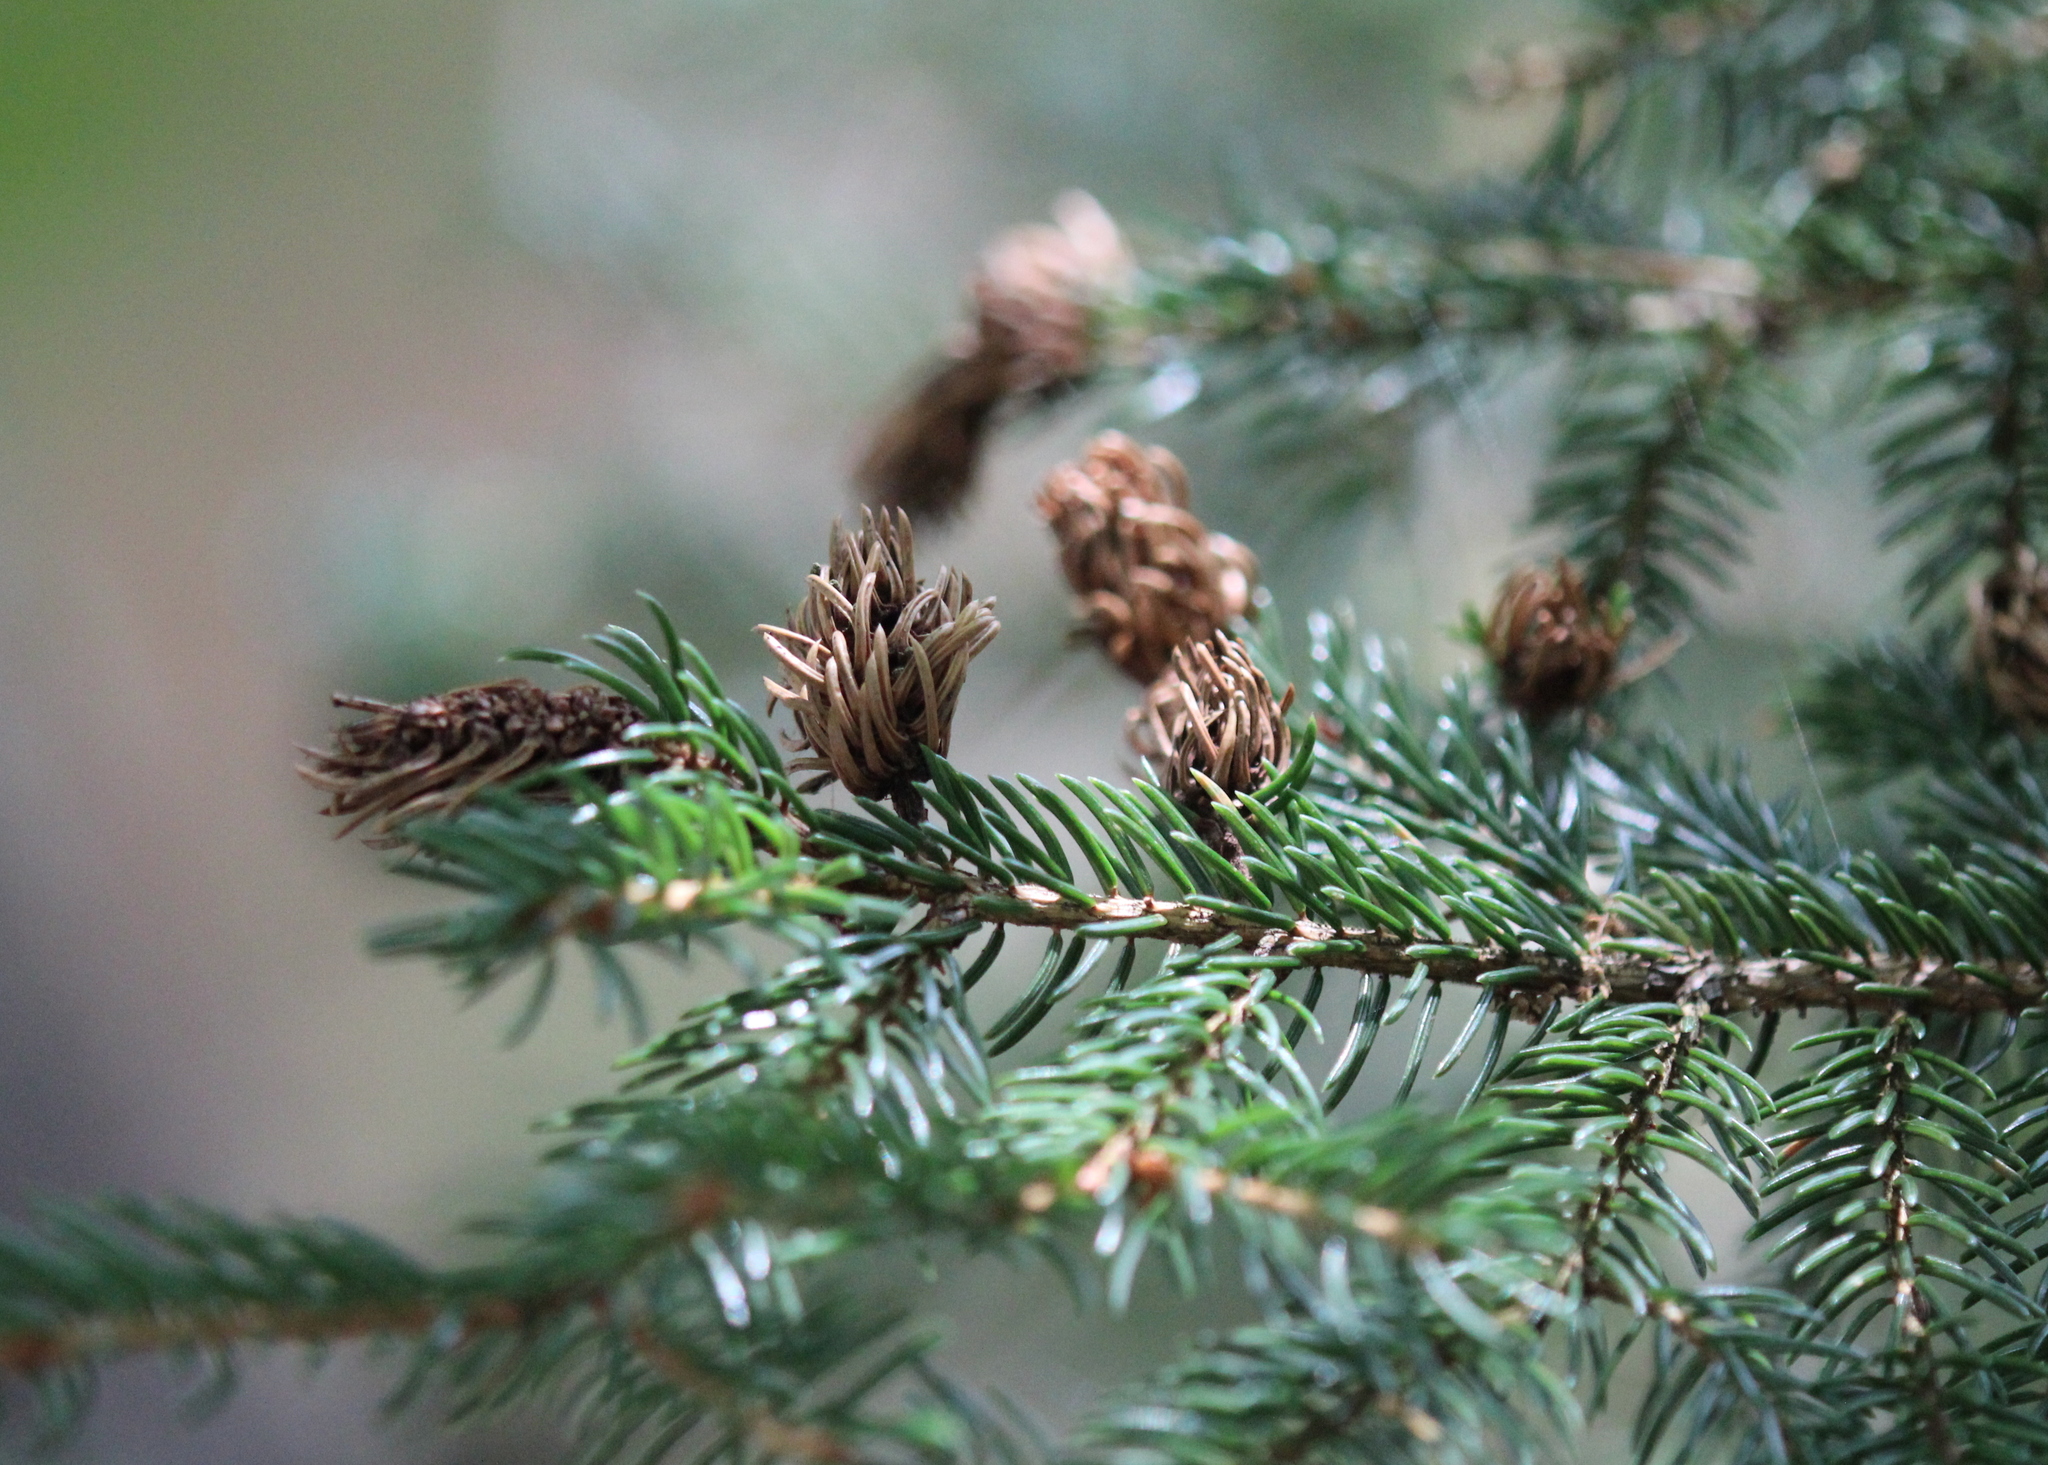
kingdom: Animalia
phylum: Arthropoda
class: Insecta
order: Hemiptera
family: Adelgidae
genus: Adelges
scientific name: Adelges abietis
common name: Eastern spruce gall adelgid
